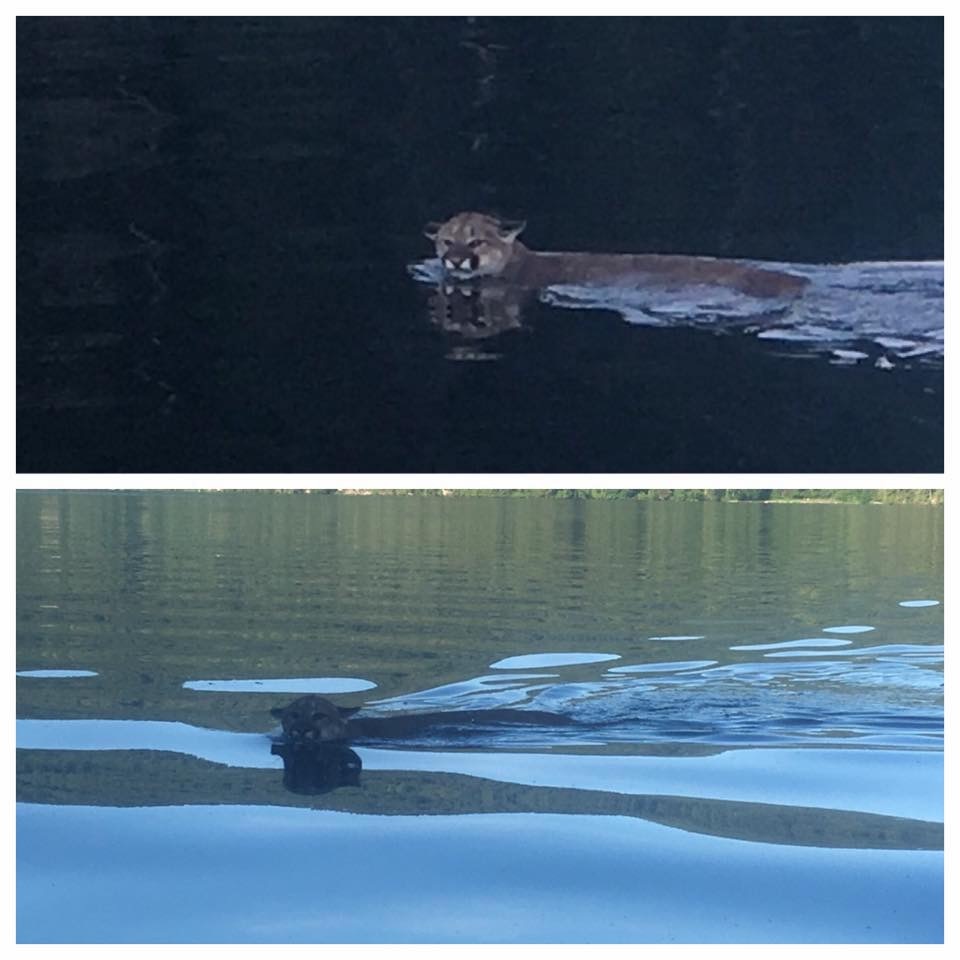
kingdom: Animalia
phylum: Chordata
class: Mammalia
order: Carnivora
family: Felidae
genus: Puma
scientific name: Puma concolor
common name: Puma
